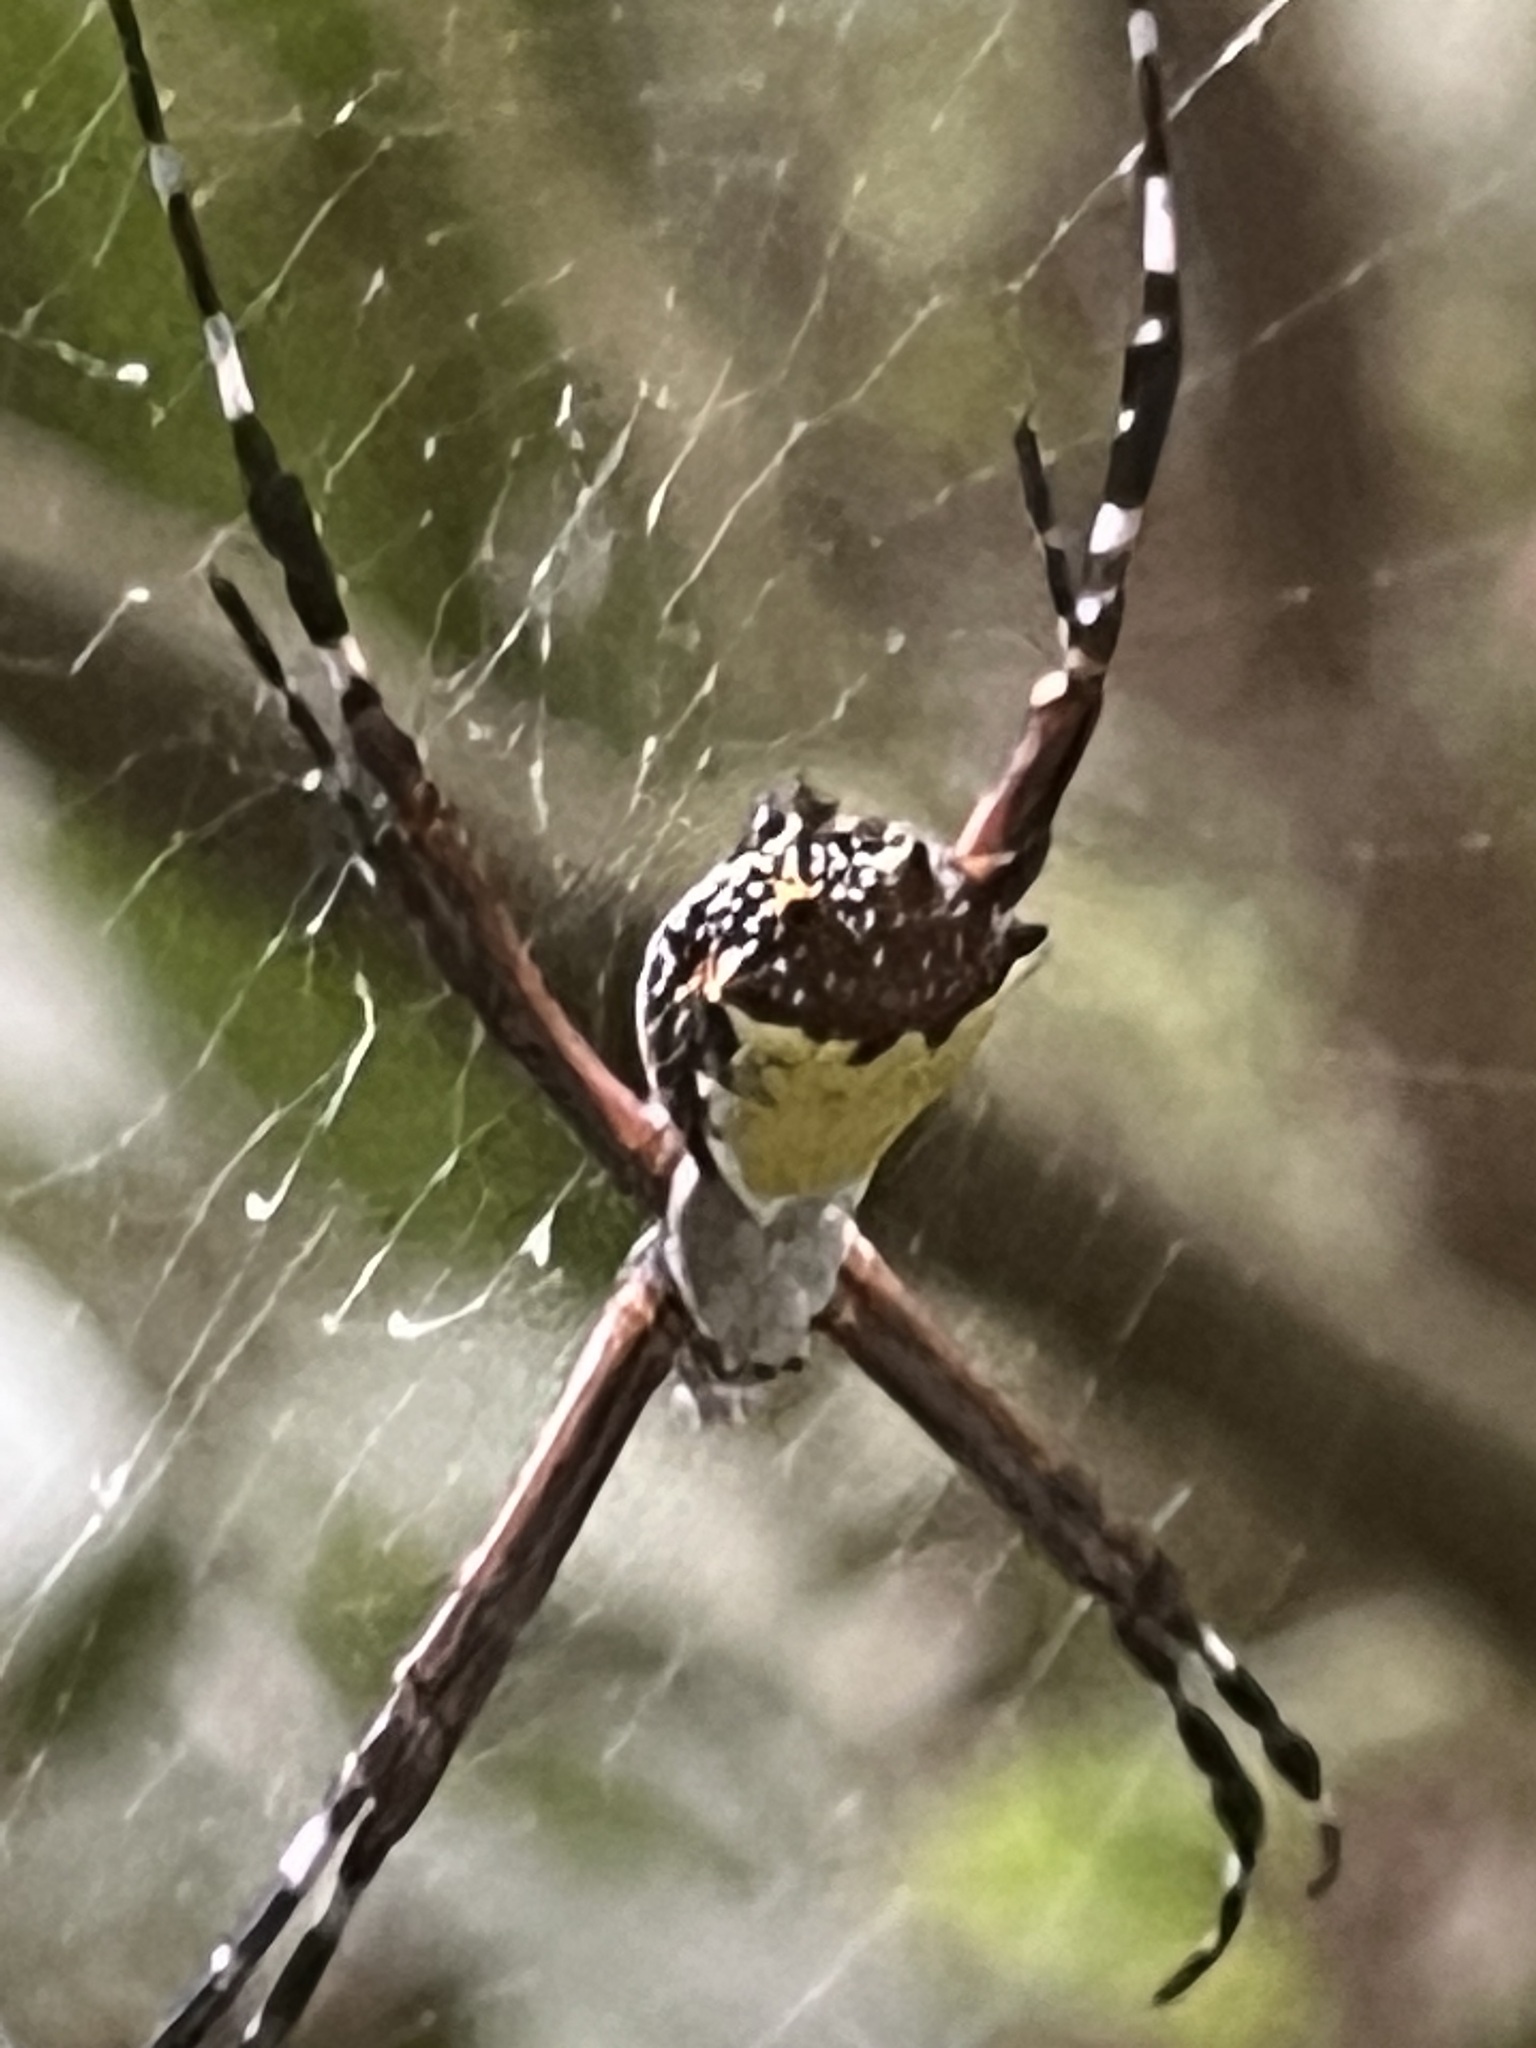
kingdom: Animalia
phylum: Arthropoda
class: Arachnida
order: Araneae
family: Araneidae
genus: Argiope
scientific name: Argiope submaronica
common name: Orb weavers
